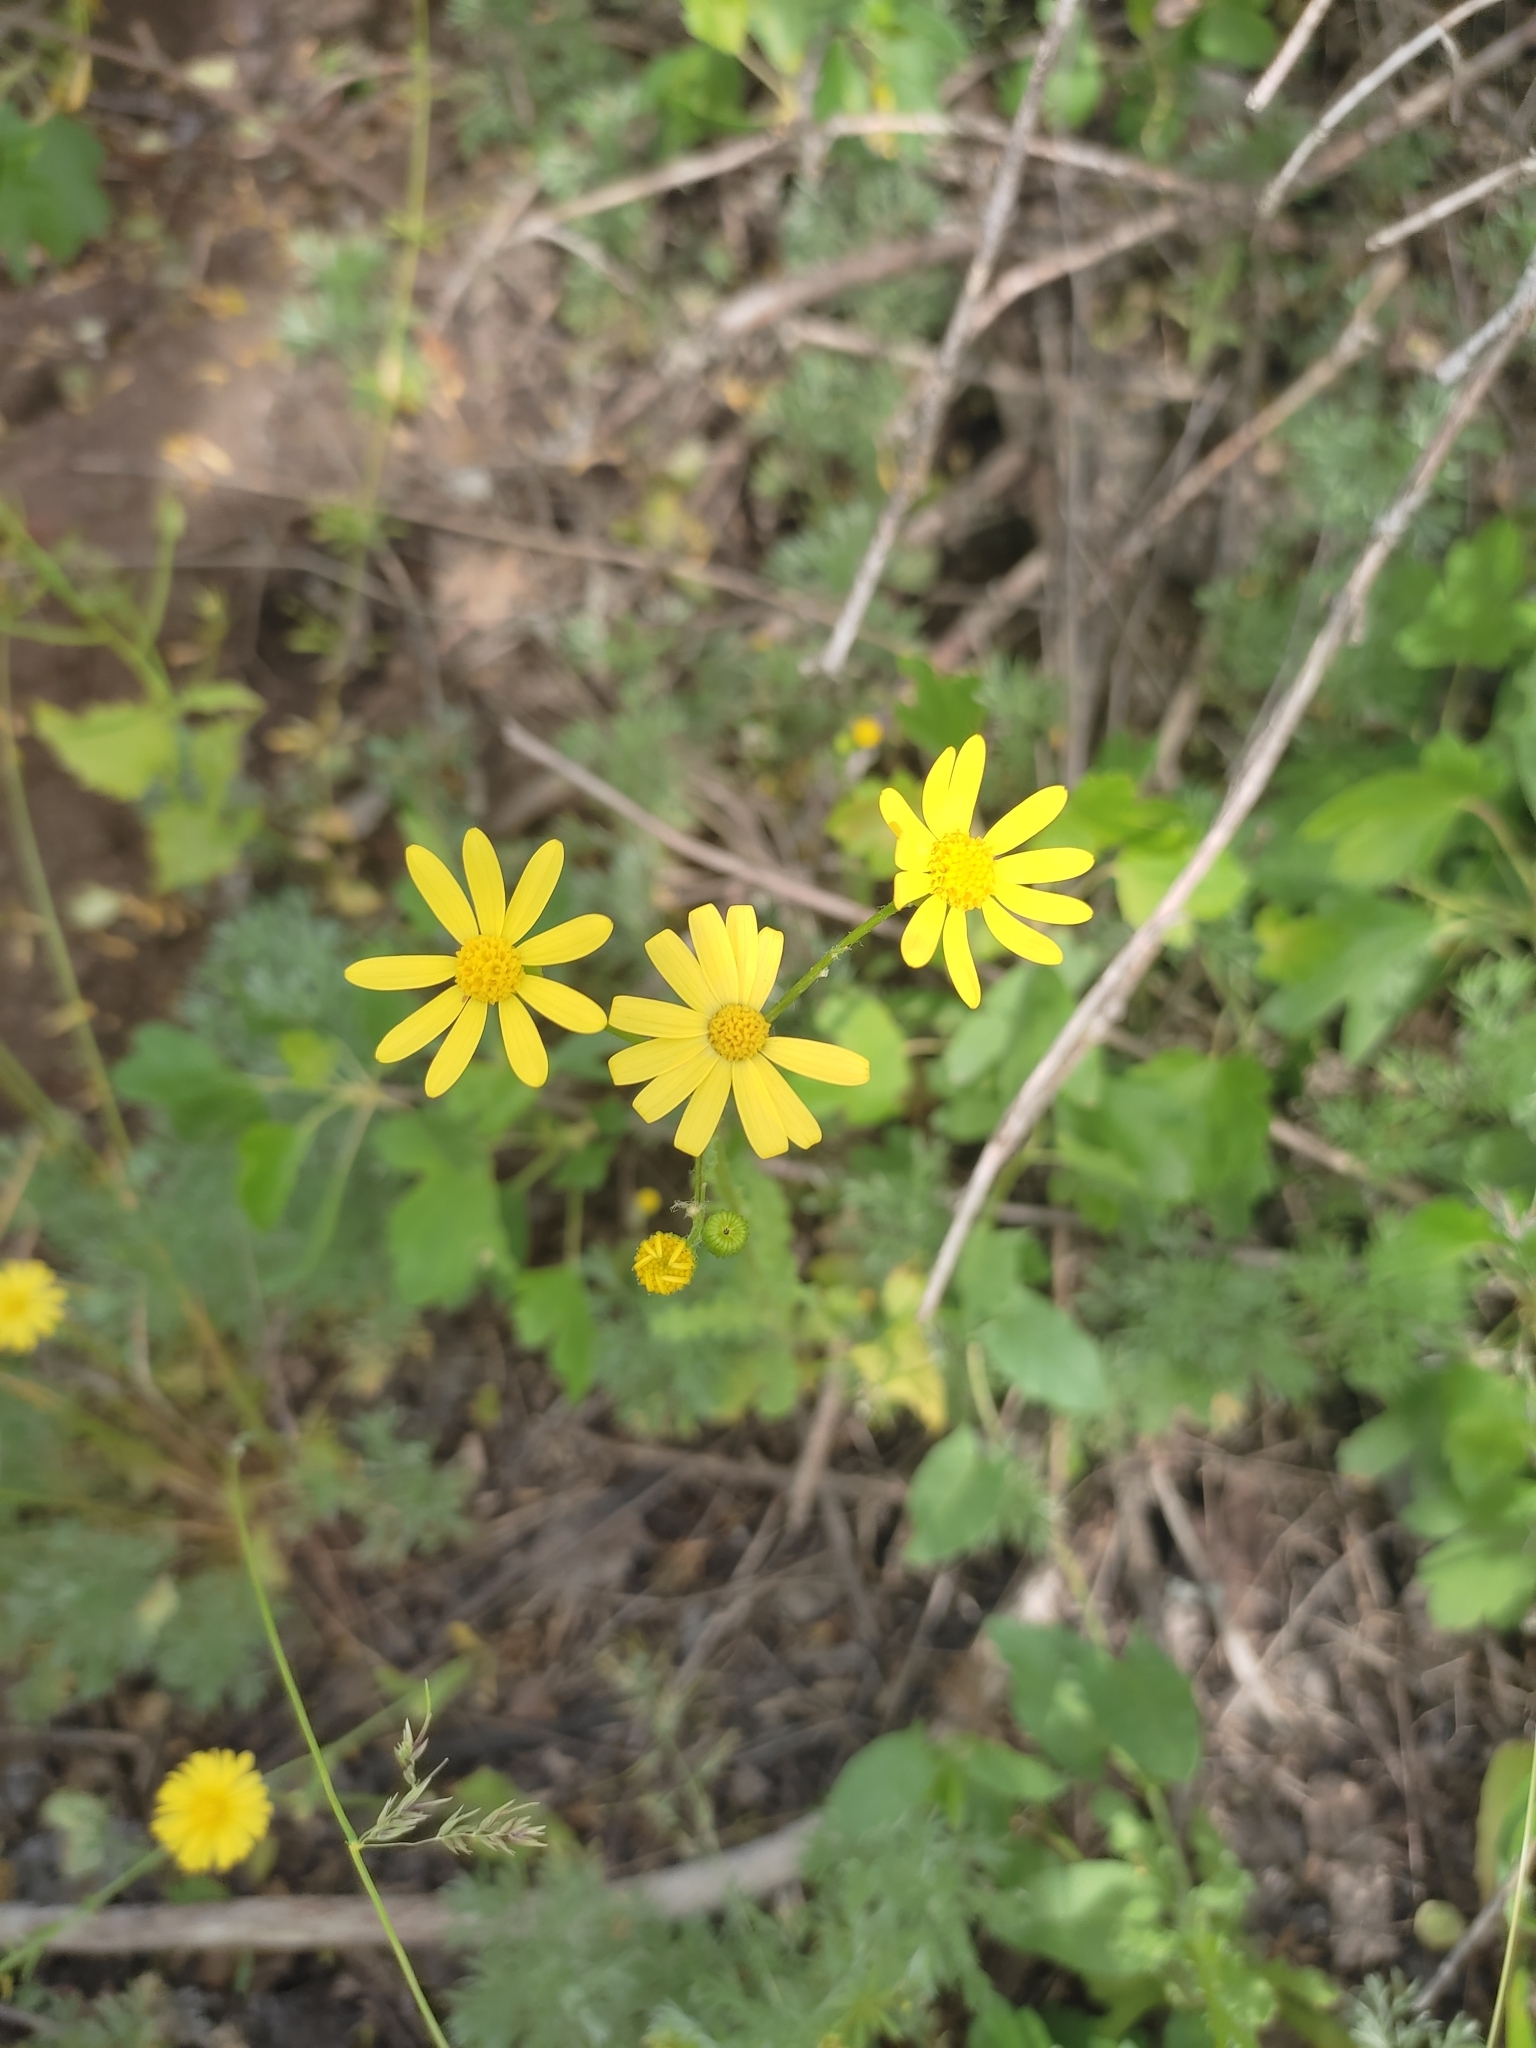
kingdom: Plantae
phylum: Tracheophyta
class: Magnoliopsida
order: Asterales
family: Asteraceae
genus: Senecio
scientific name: Senecio vernalis
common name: Eastern groundsel
